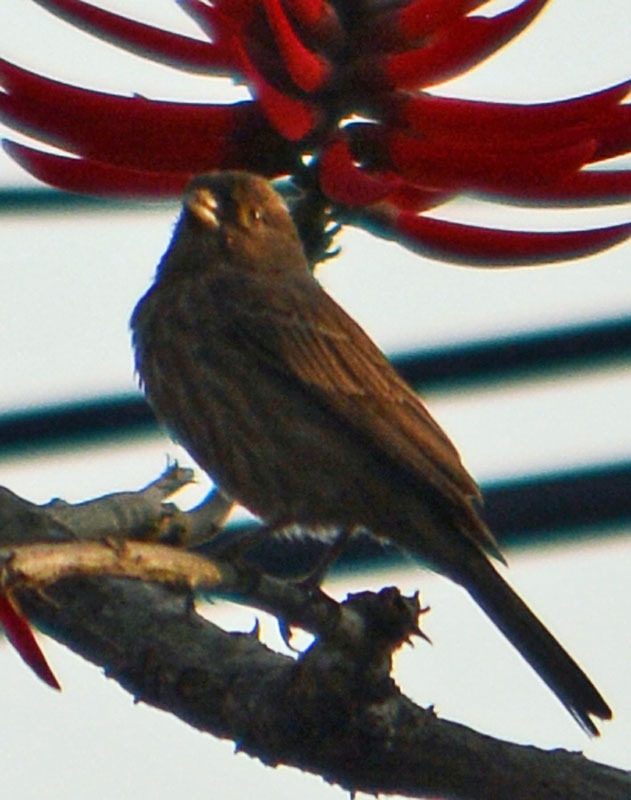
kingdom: Animalia
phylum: Chordata
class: Aves
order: Passeriformes
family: Fringillidae
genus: Haemorhous
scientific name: Haemorhous mexicanus
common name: House finch
